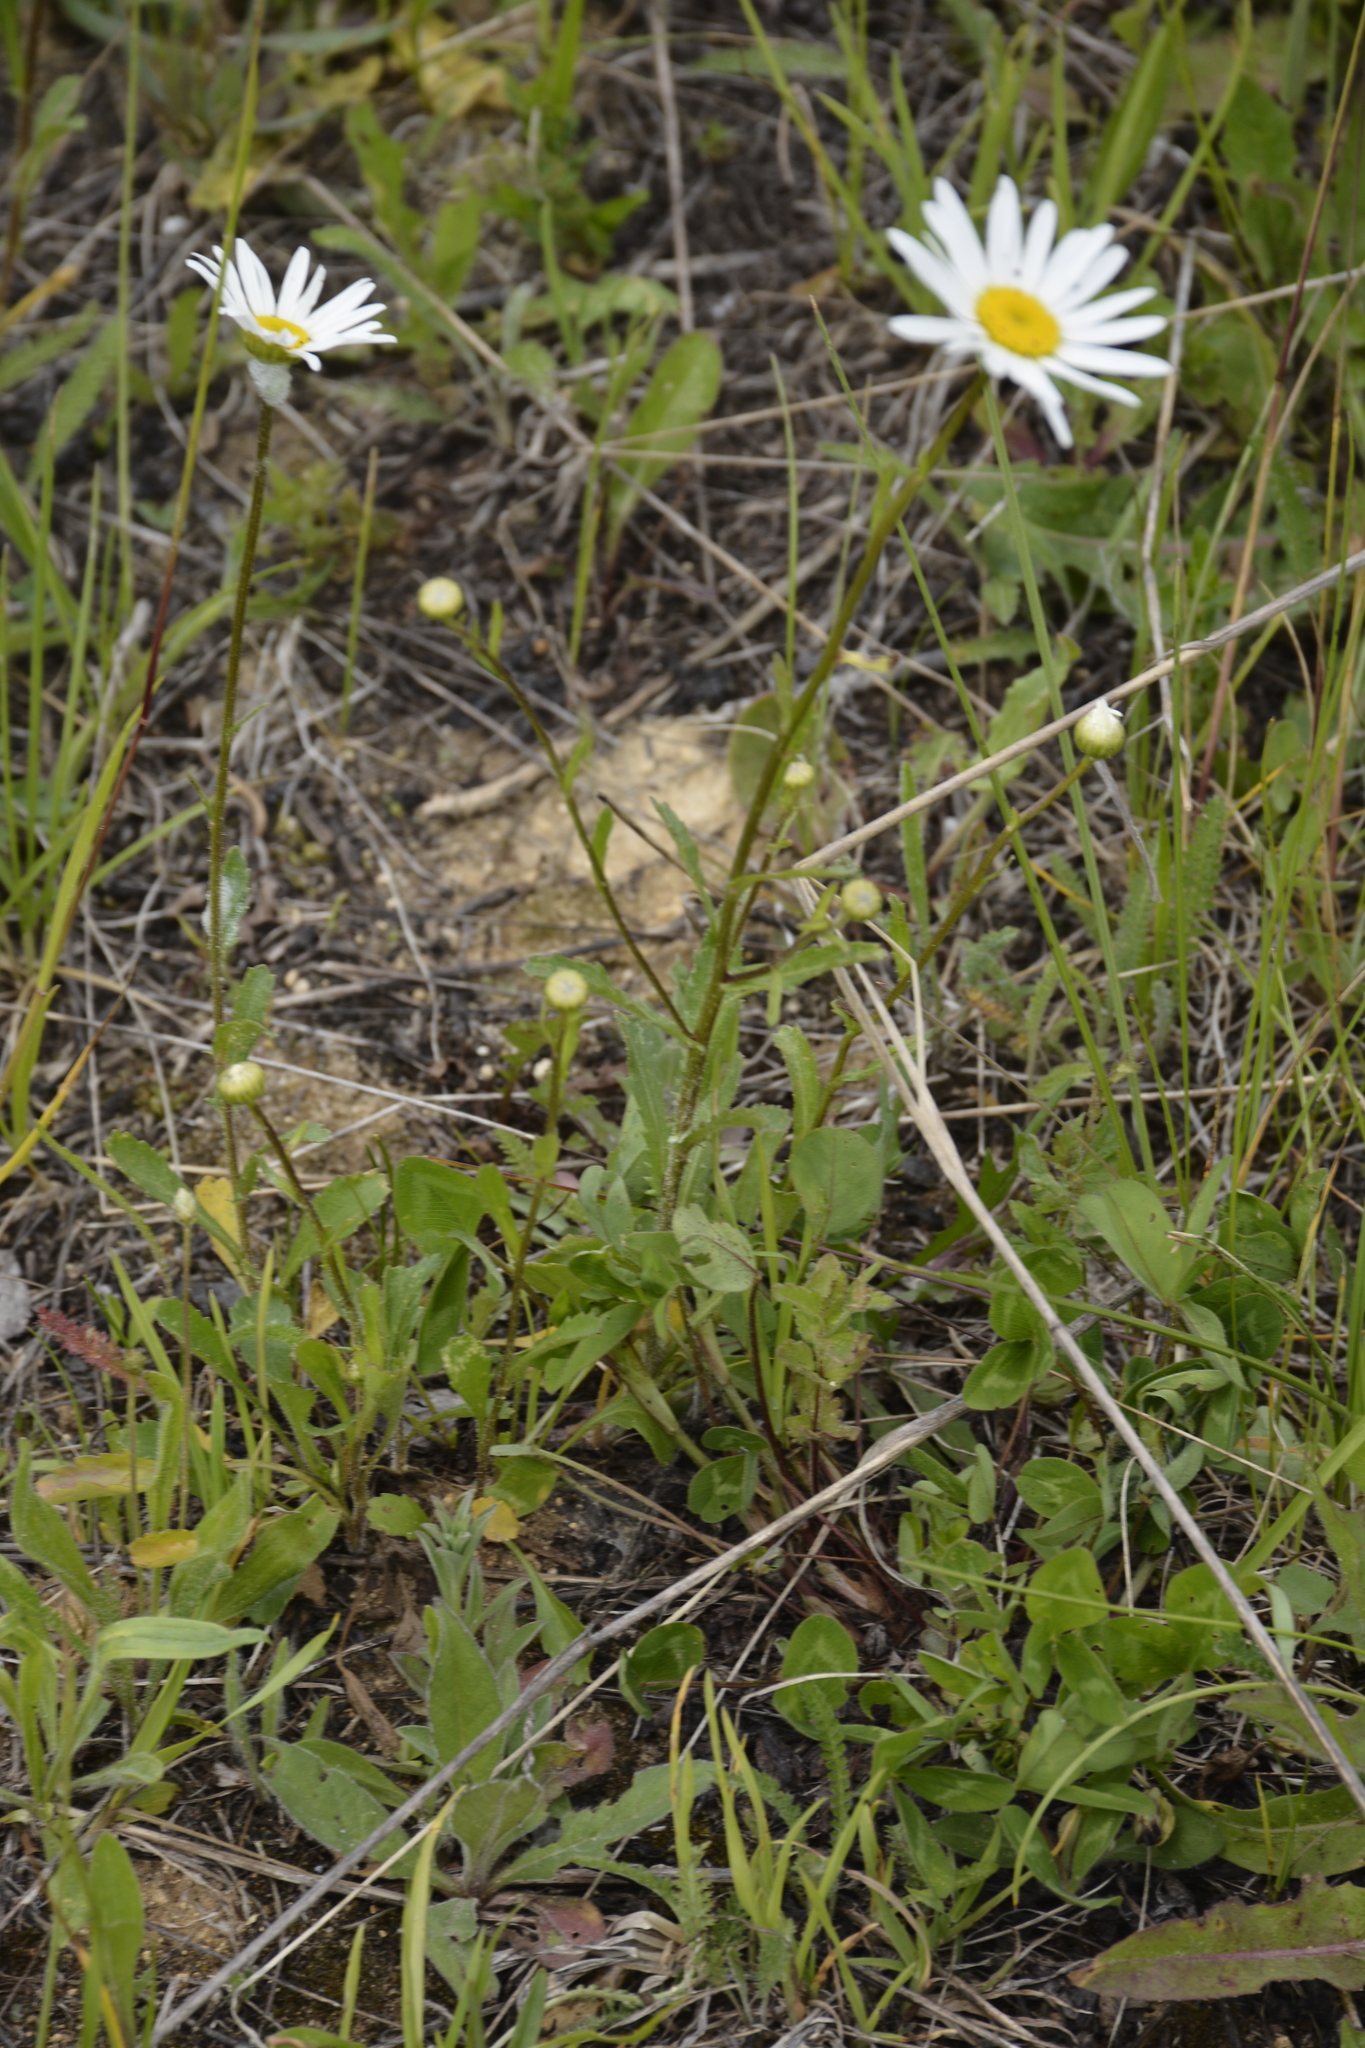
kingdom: Plantae
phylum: Tracheophyta
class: Magnoliopsida
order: Asterales
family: Asteraceae
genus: Leucanthemum
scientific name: Leucanthemum vulgare
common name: Oxeye daisy
